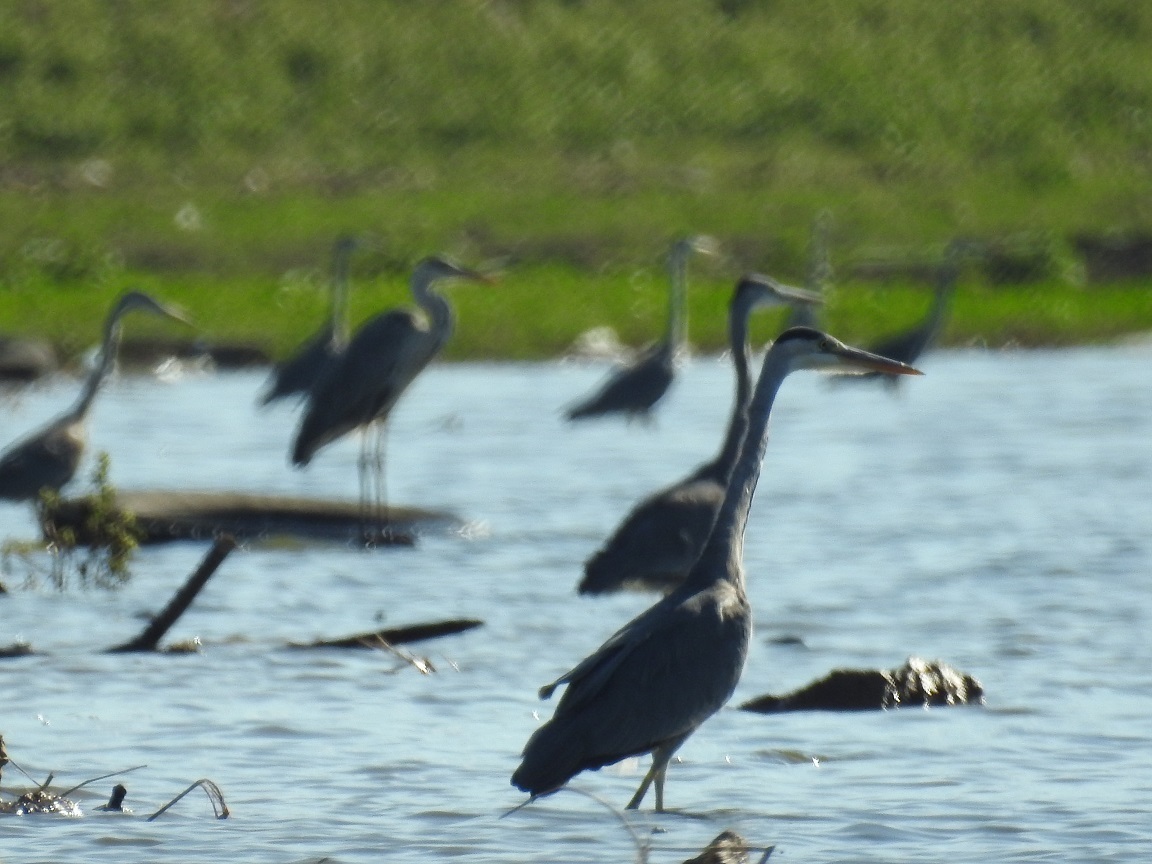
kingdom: Animalia
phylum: Chordata
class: Aves
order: Pelecaniformes
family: Ardeidae
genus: Ardea
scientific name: Ardea cinerea
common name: Grey heron
